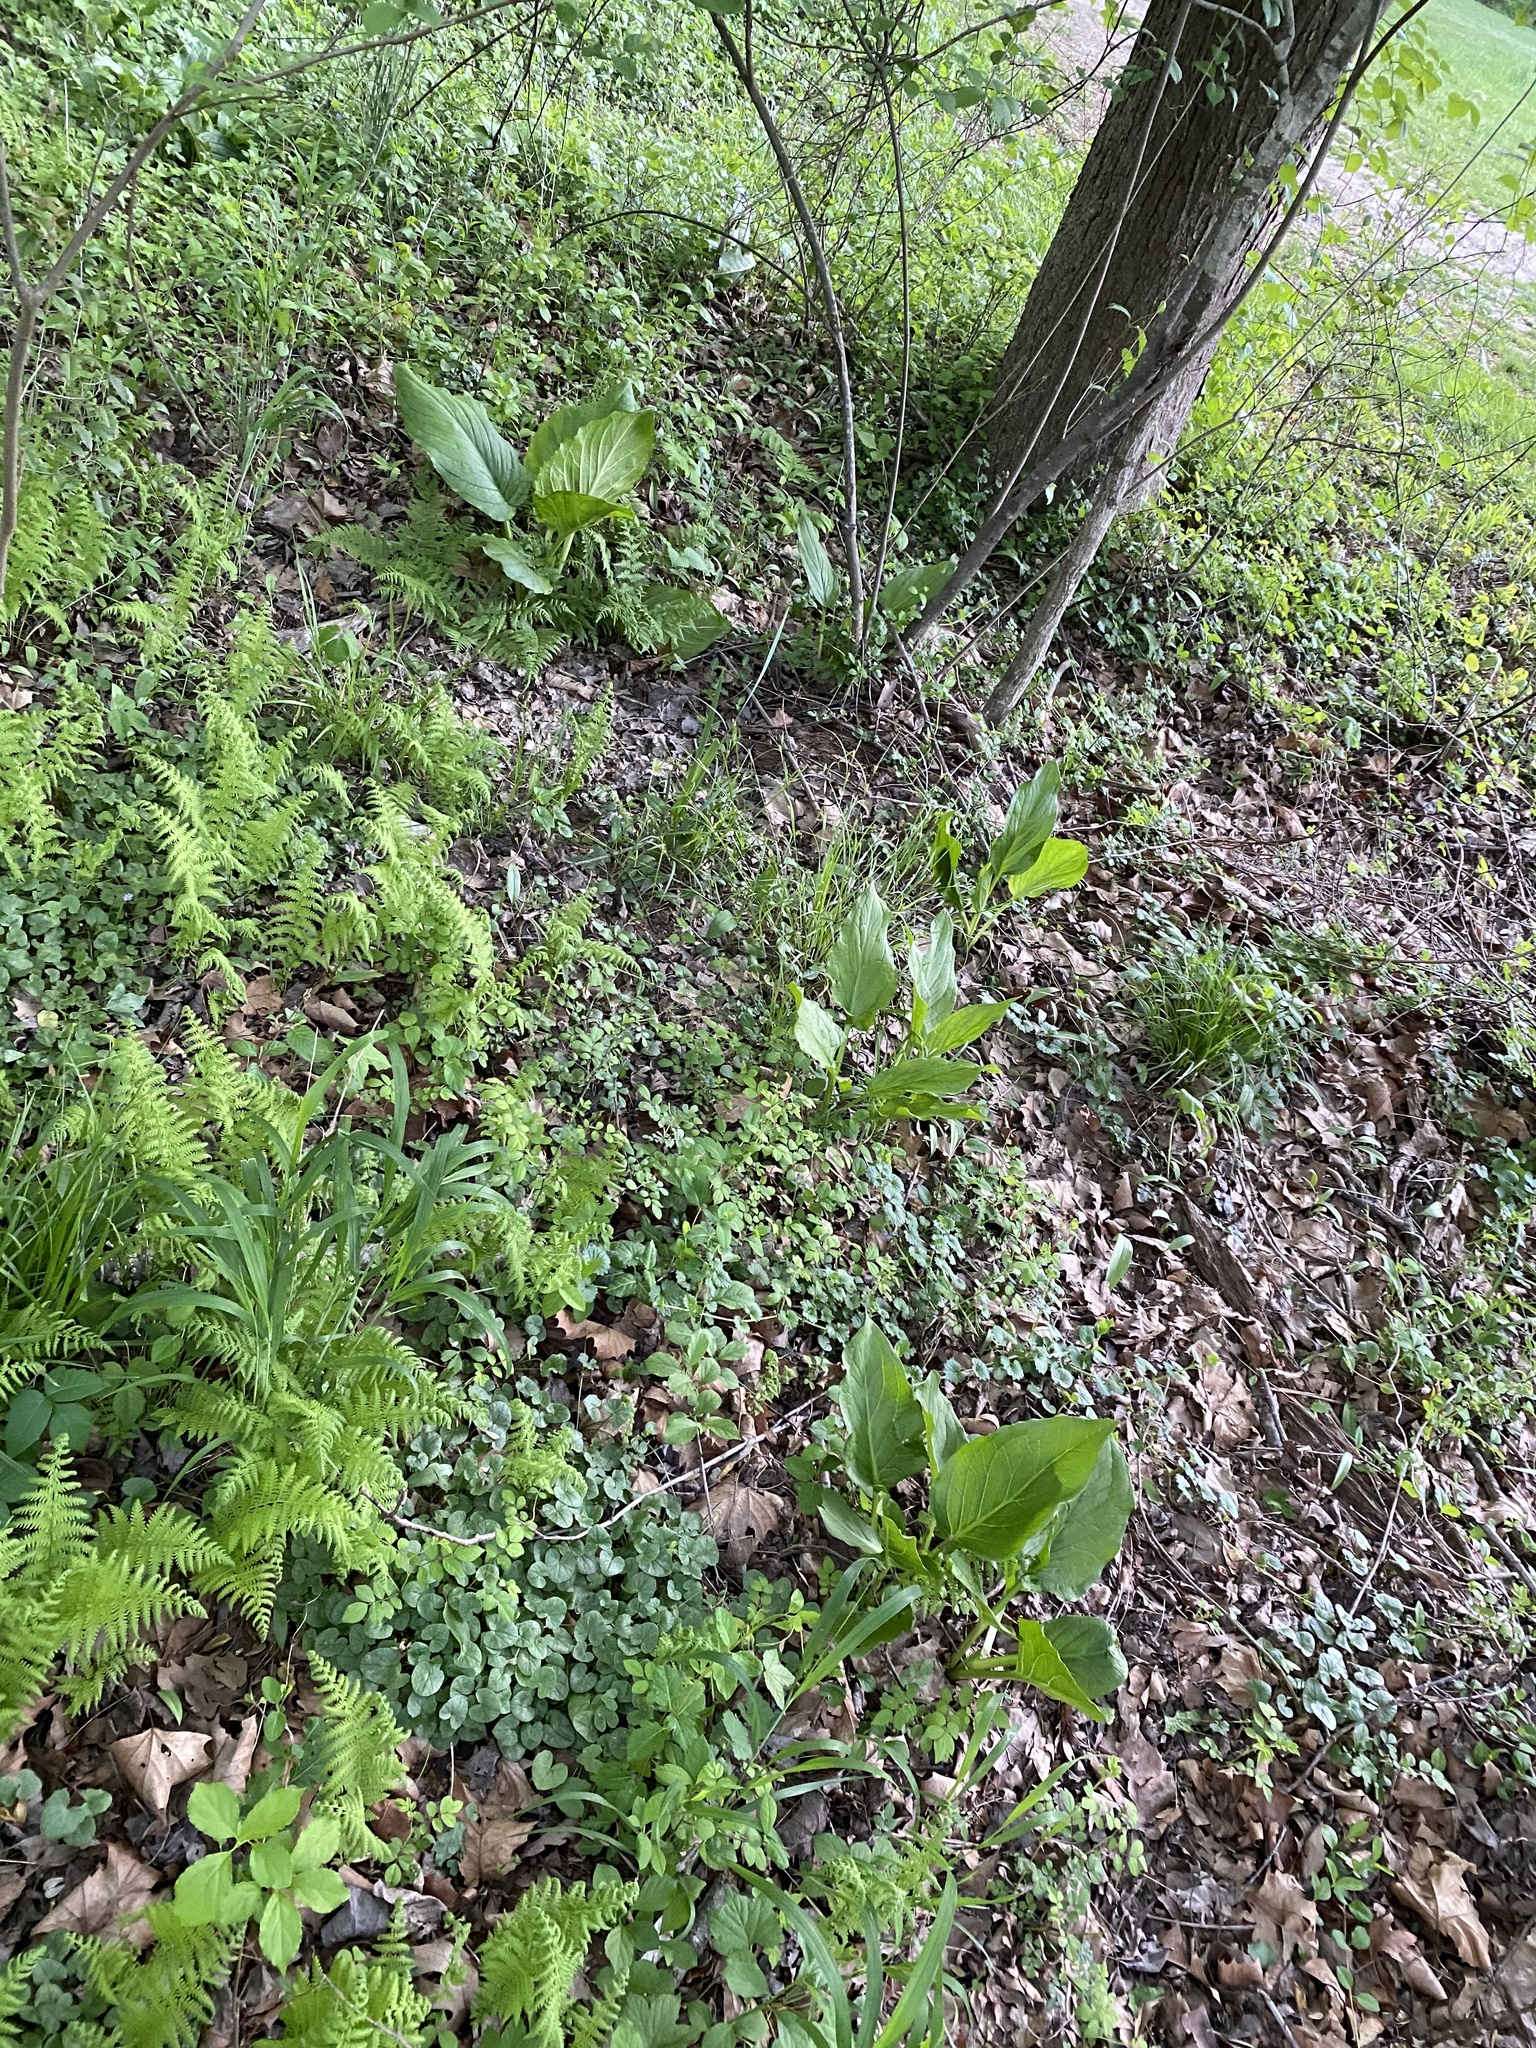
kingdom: Plantae
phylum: Tracheophyta
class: Liliopsida
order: Alismatales
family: Araceae
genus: Symplocarpus
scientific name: Symplocarpus foetidus
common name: Eastern skunk cabbage
